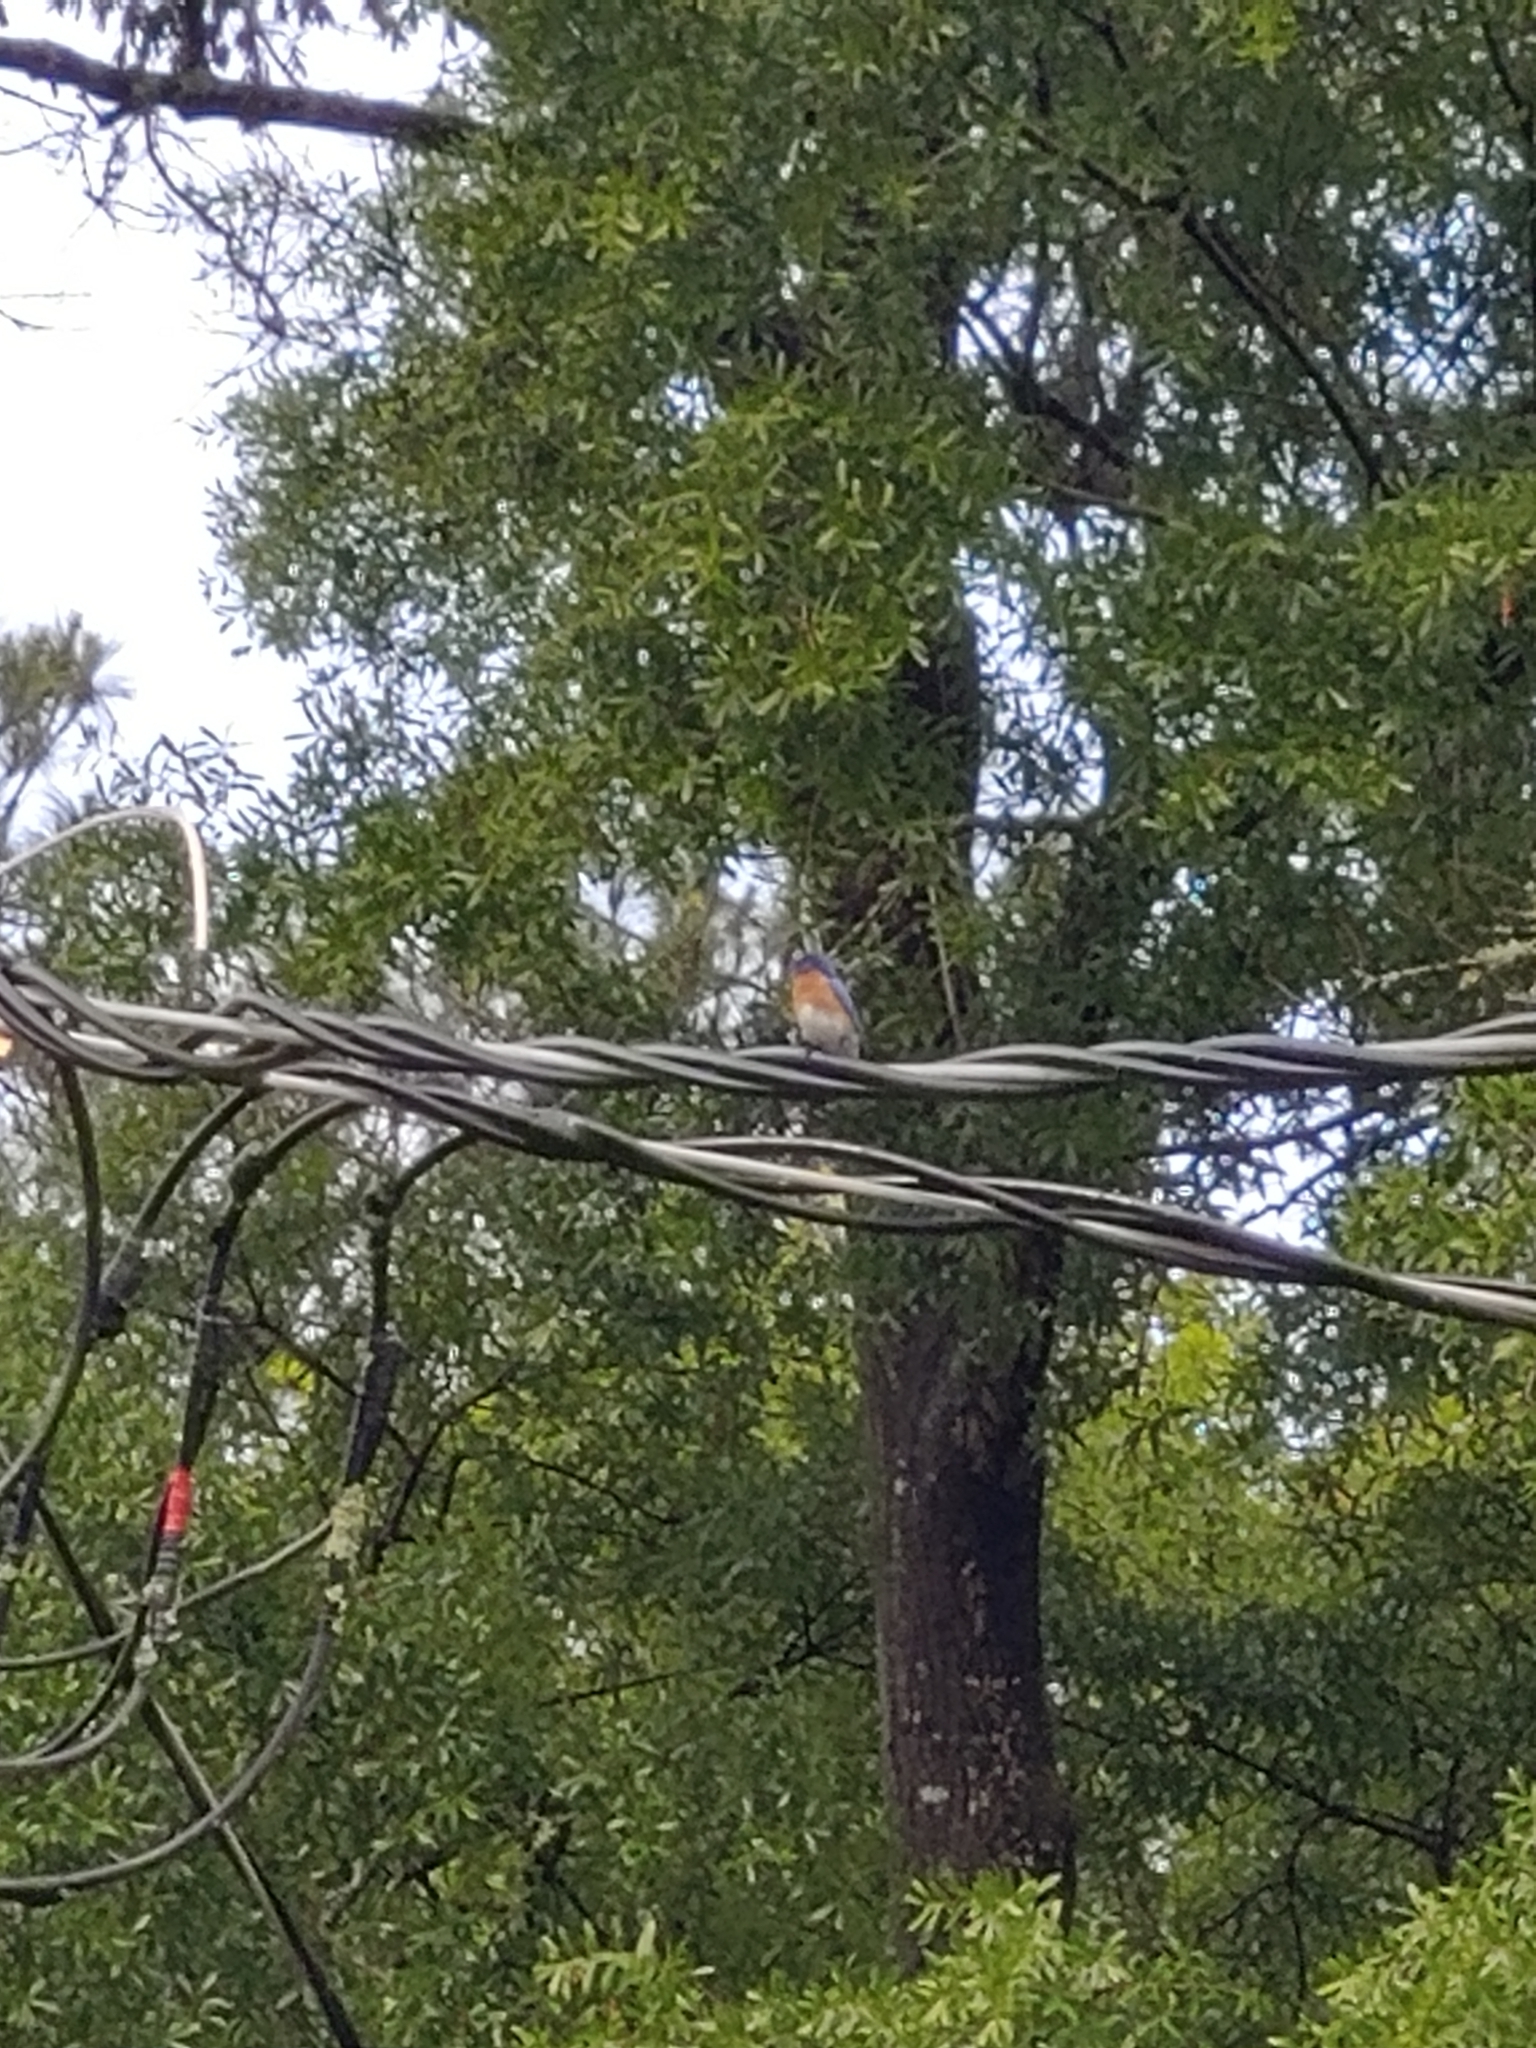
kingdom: Animalia
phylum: Chordata
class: Aves
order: Passeriformes
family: Turdidae
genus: Sialia
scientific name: Sialia sialis
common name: Eastern bluebird
